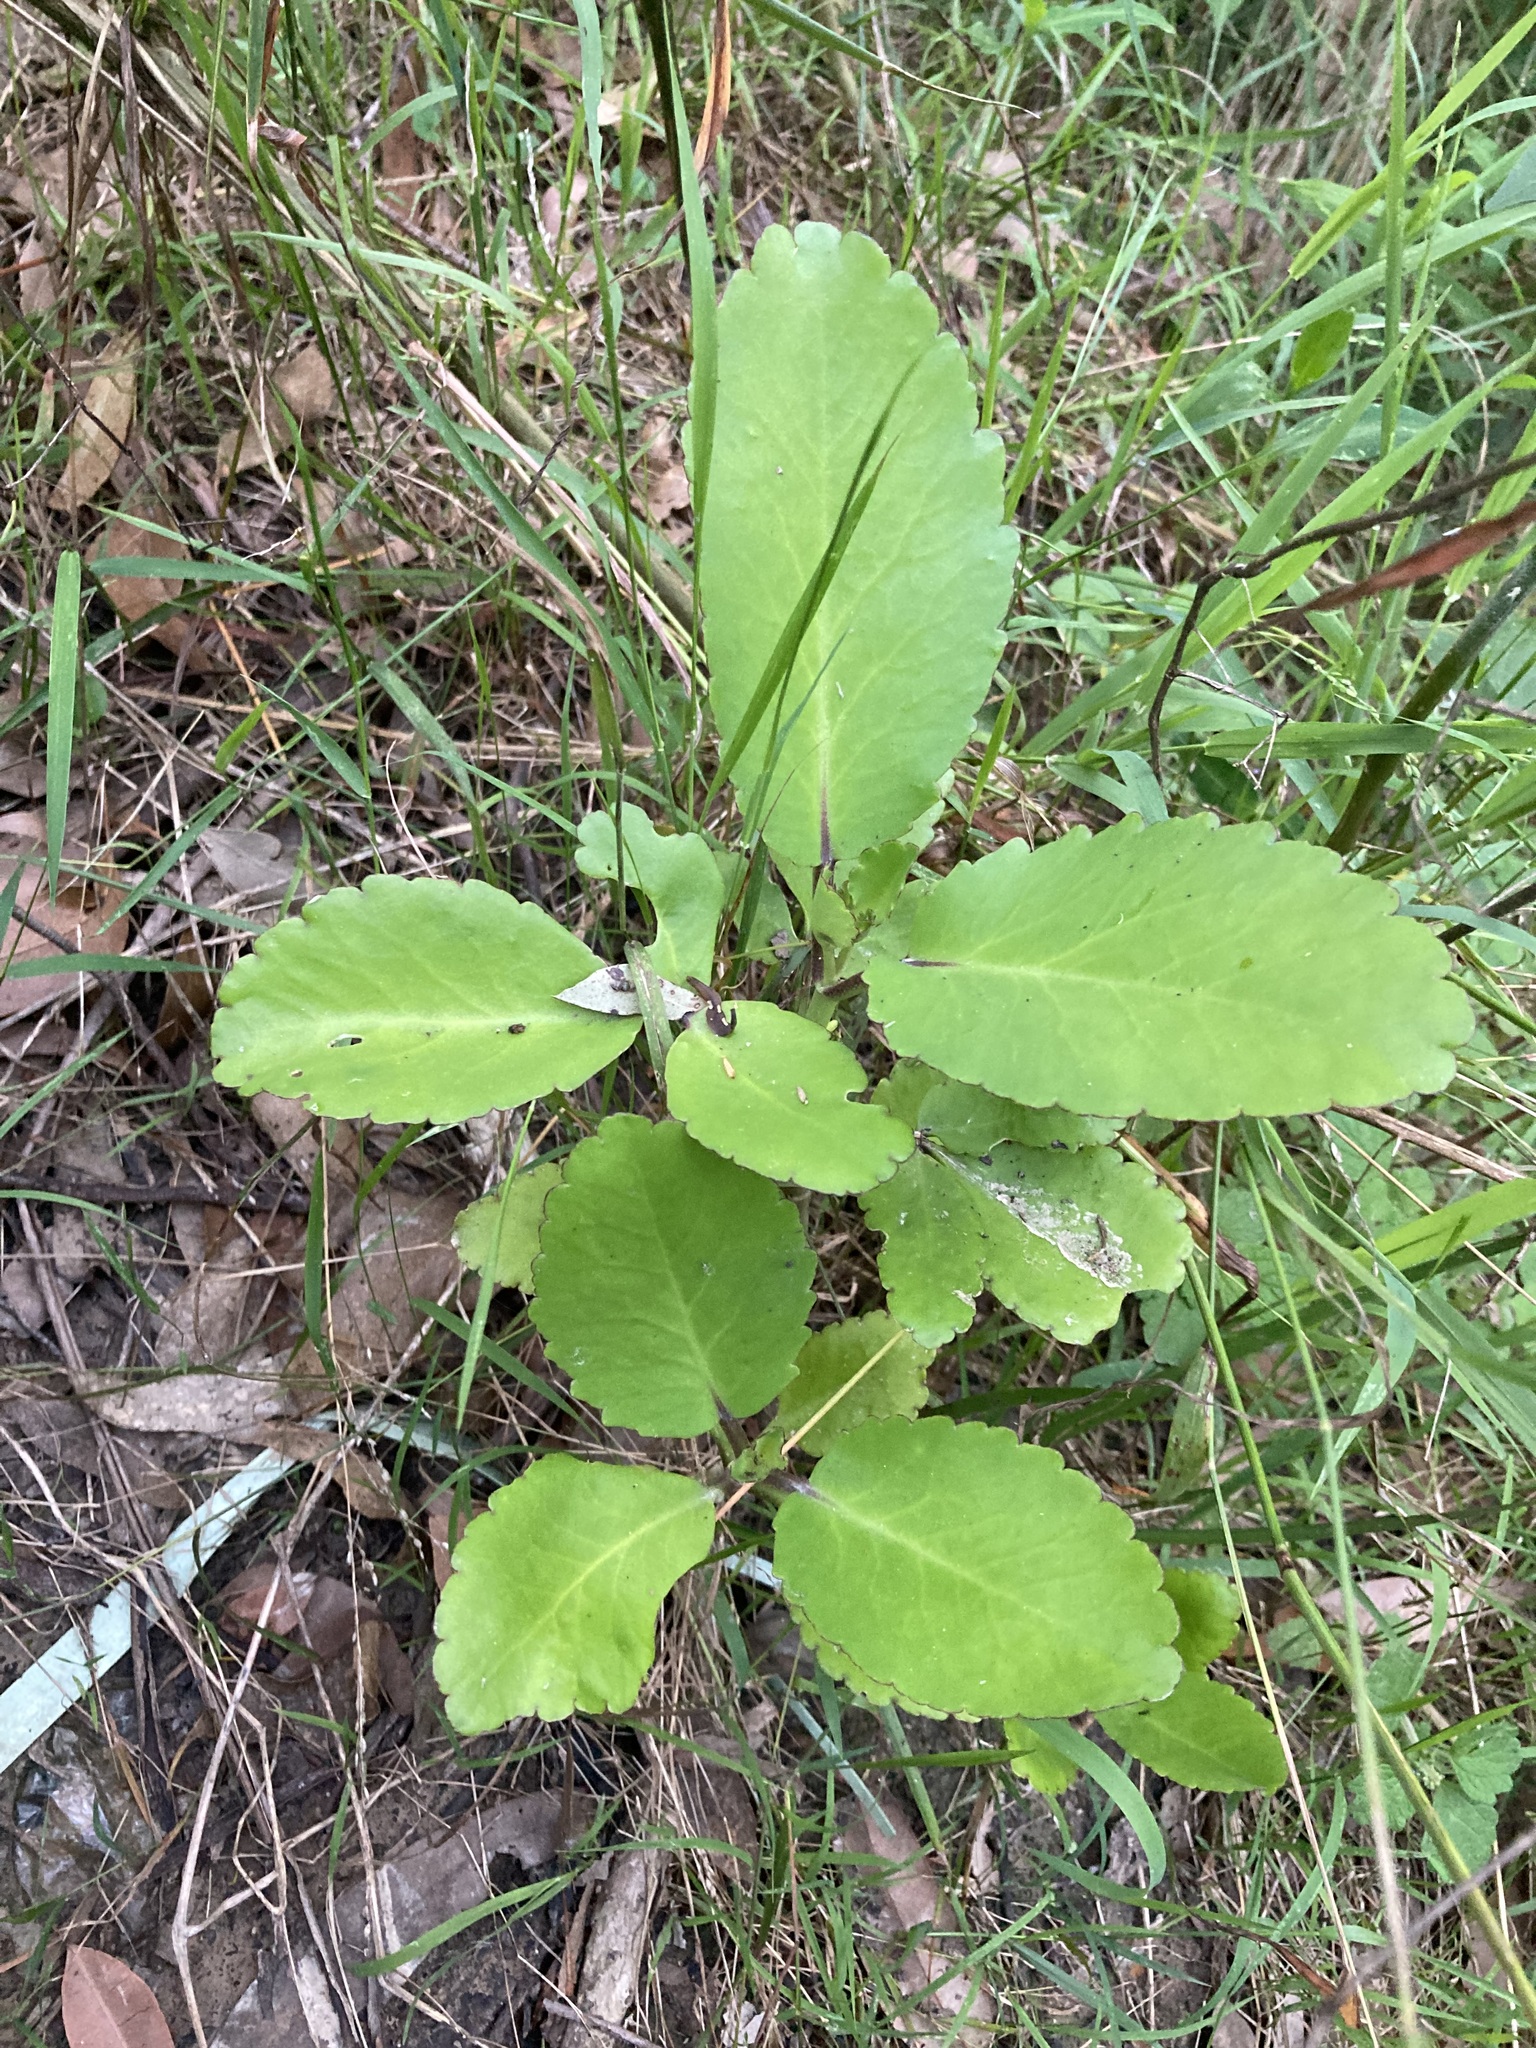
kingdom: Plantae
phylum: Tracheophyta
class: Magnoliopsida
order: Saxifragales
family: Crassulaceae
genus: Kalanchoe
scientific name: Kalanchoe pinnata
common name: Cathedral bells
